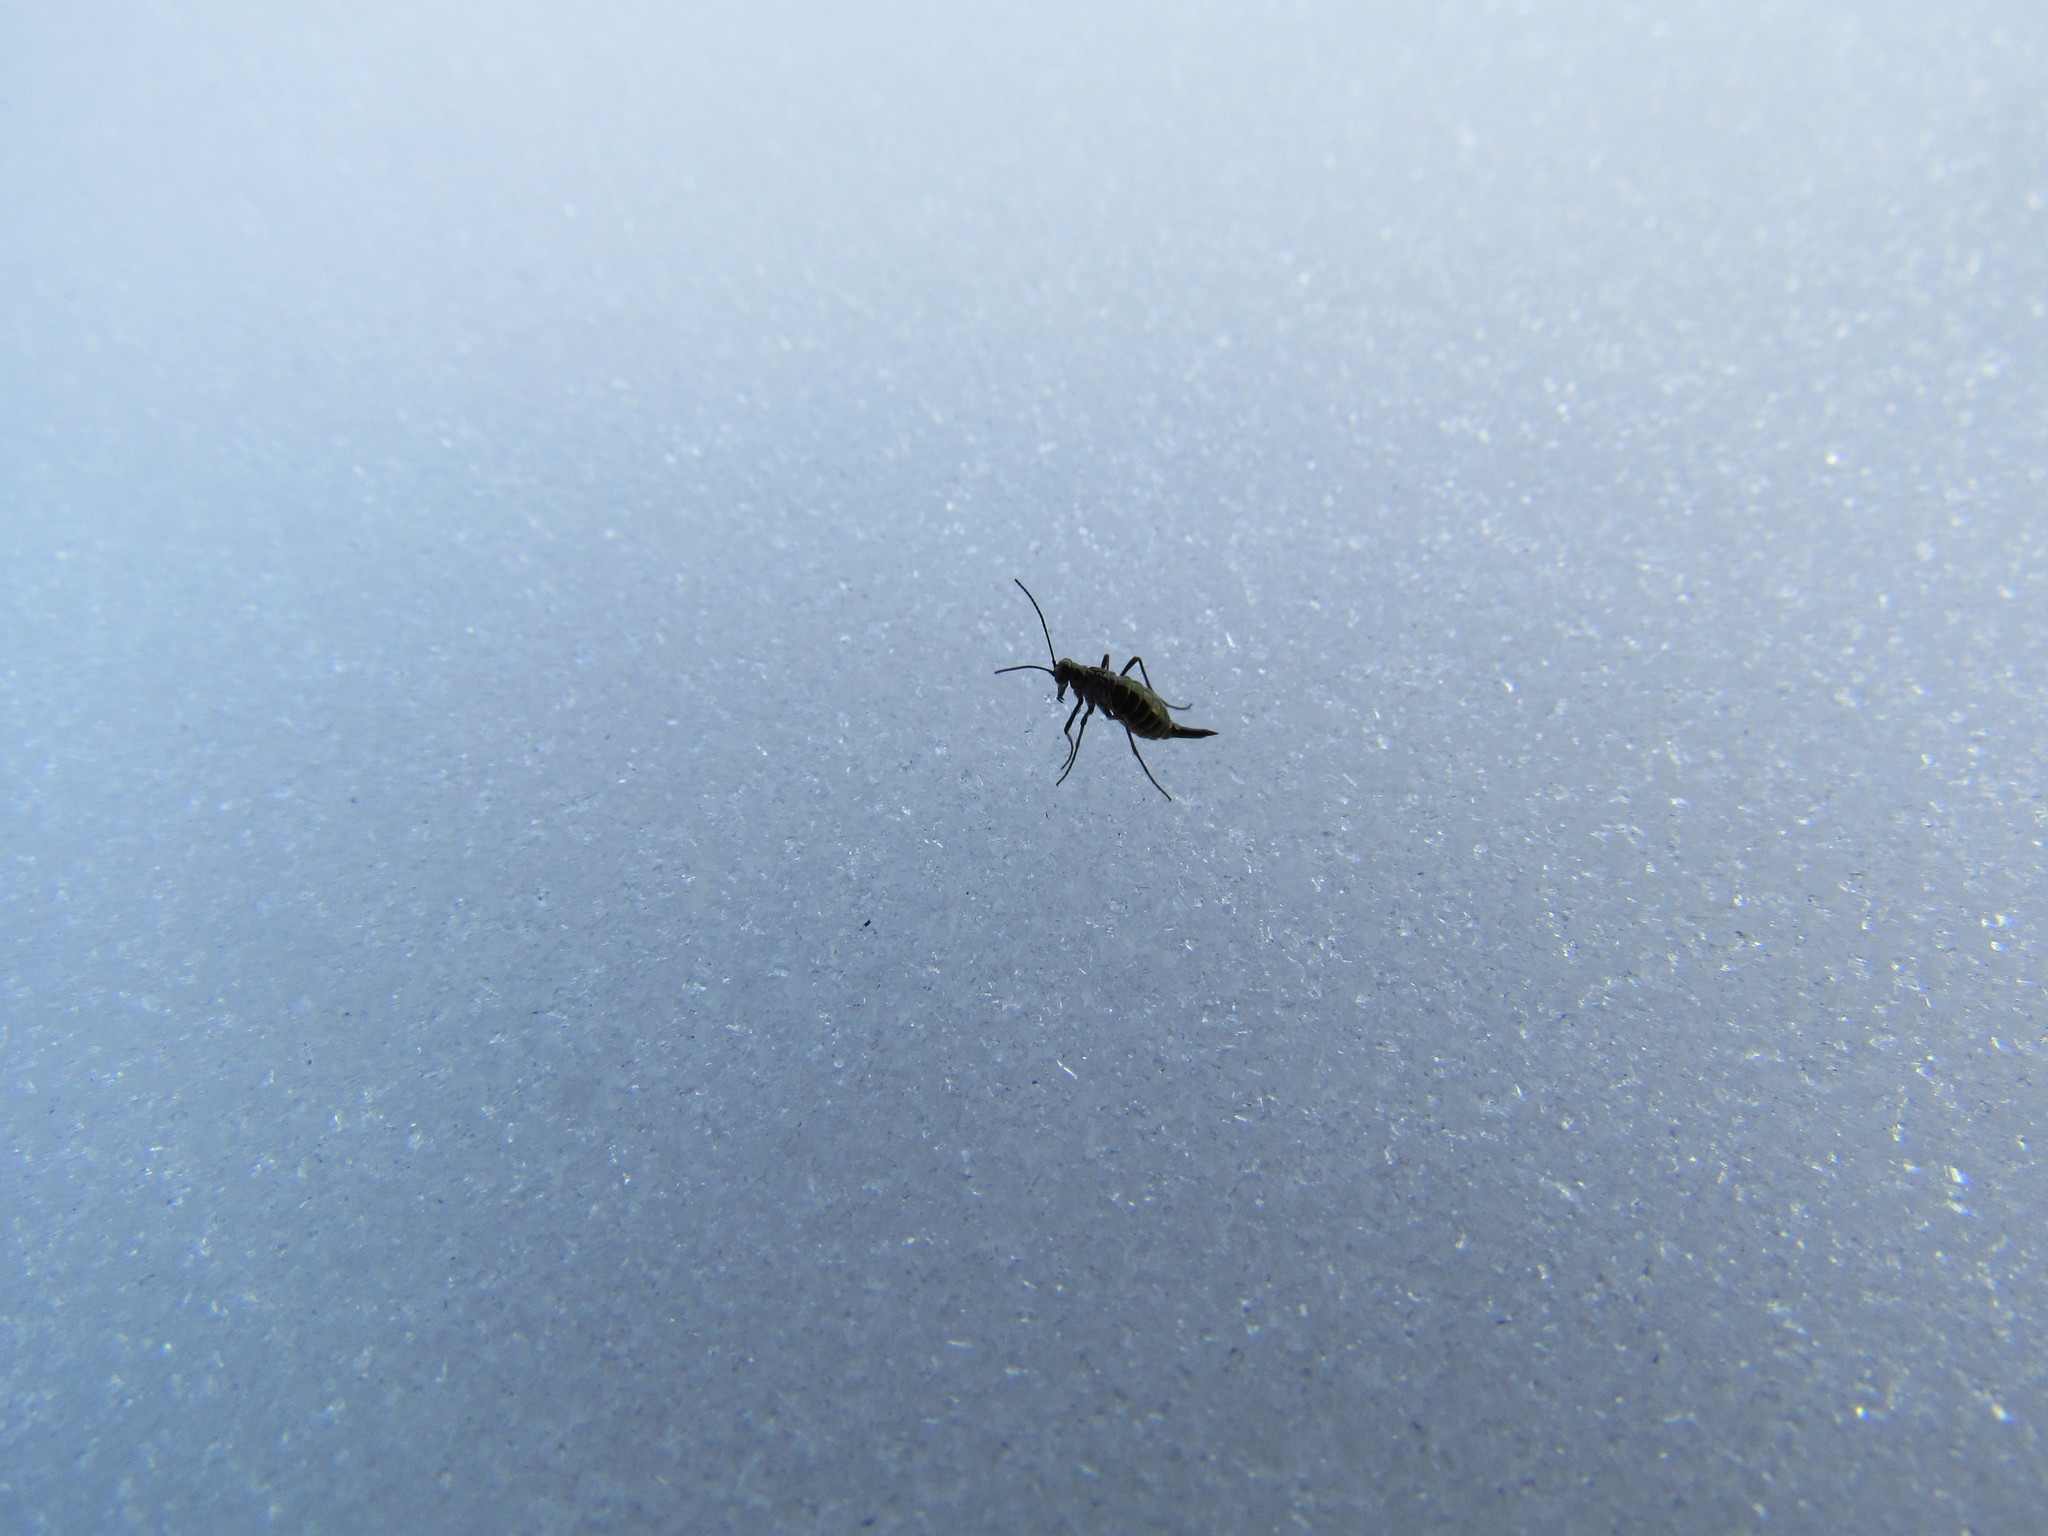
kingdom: Animalia
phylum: Arthropoda
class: Insecta
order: Mecoptera
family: Boreidae
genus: Boreus
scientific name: Boreus brumalis
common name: Mid-winter boreus
